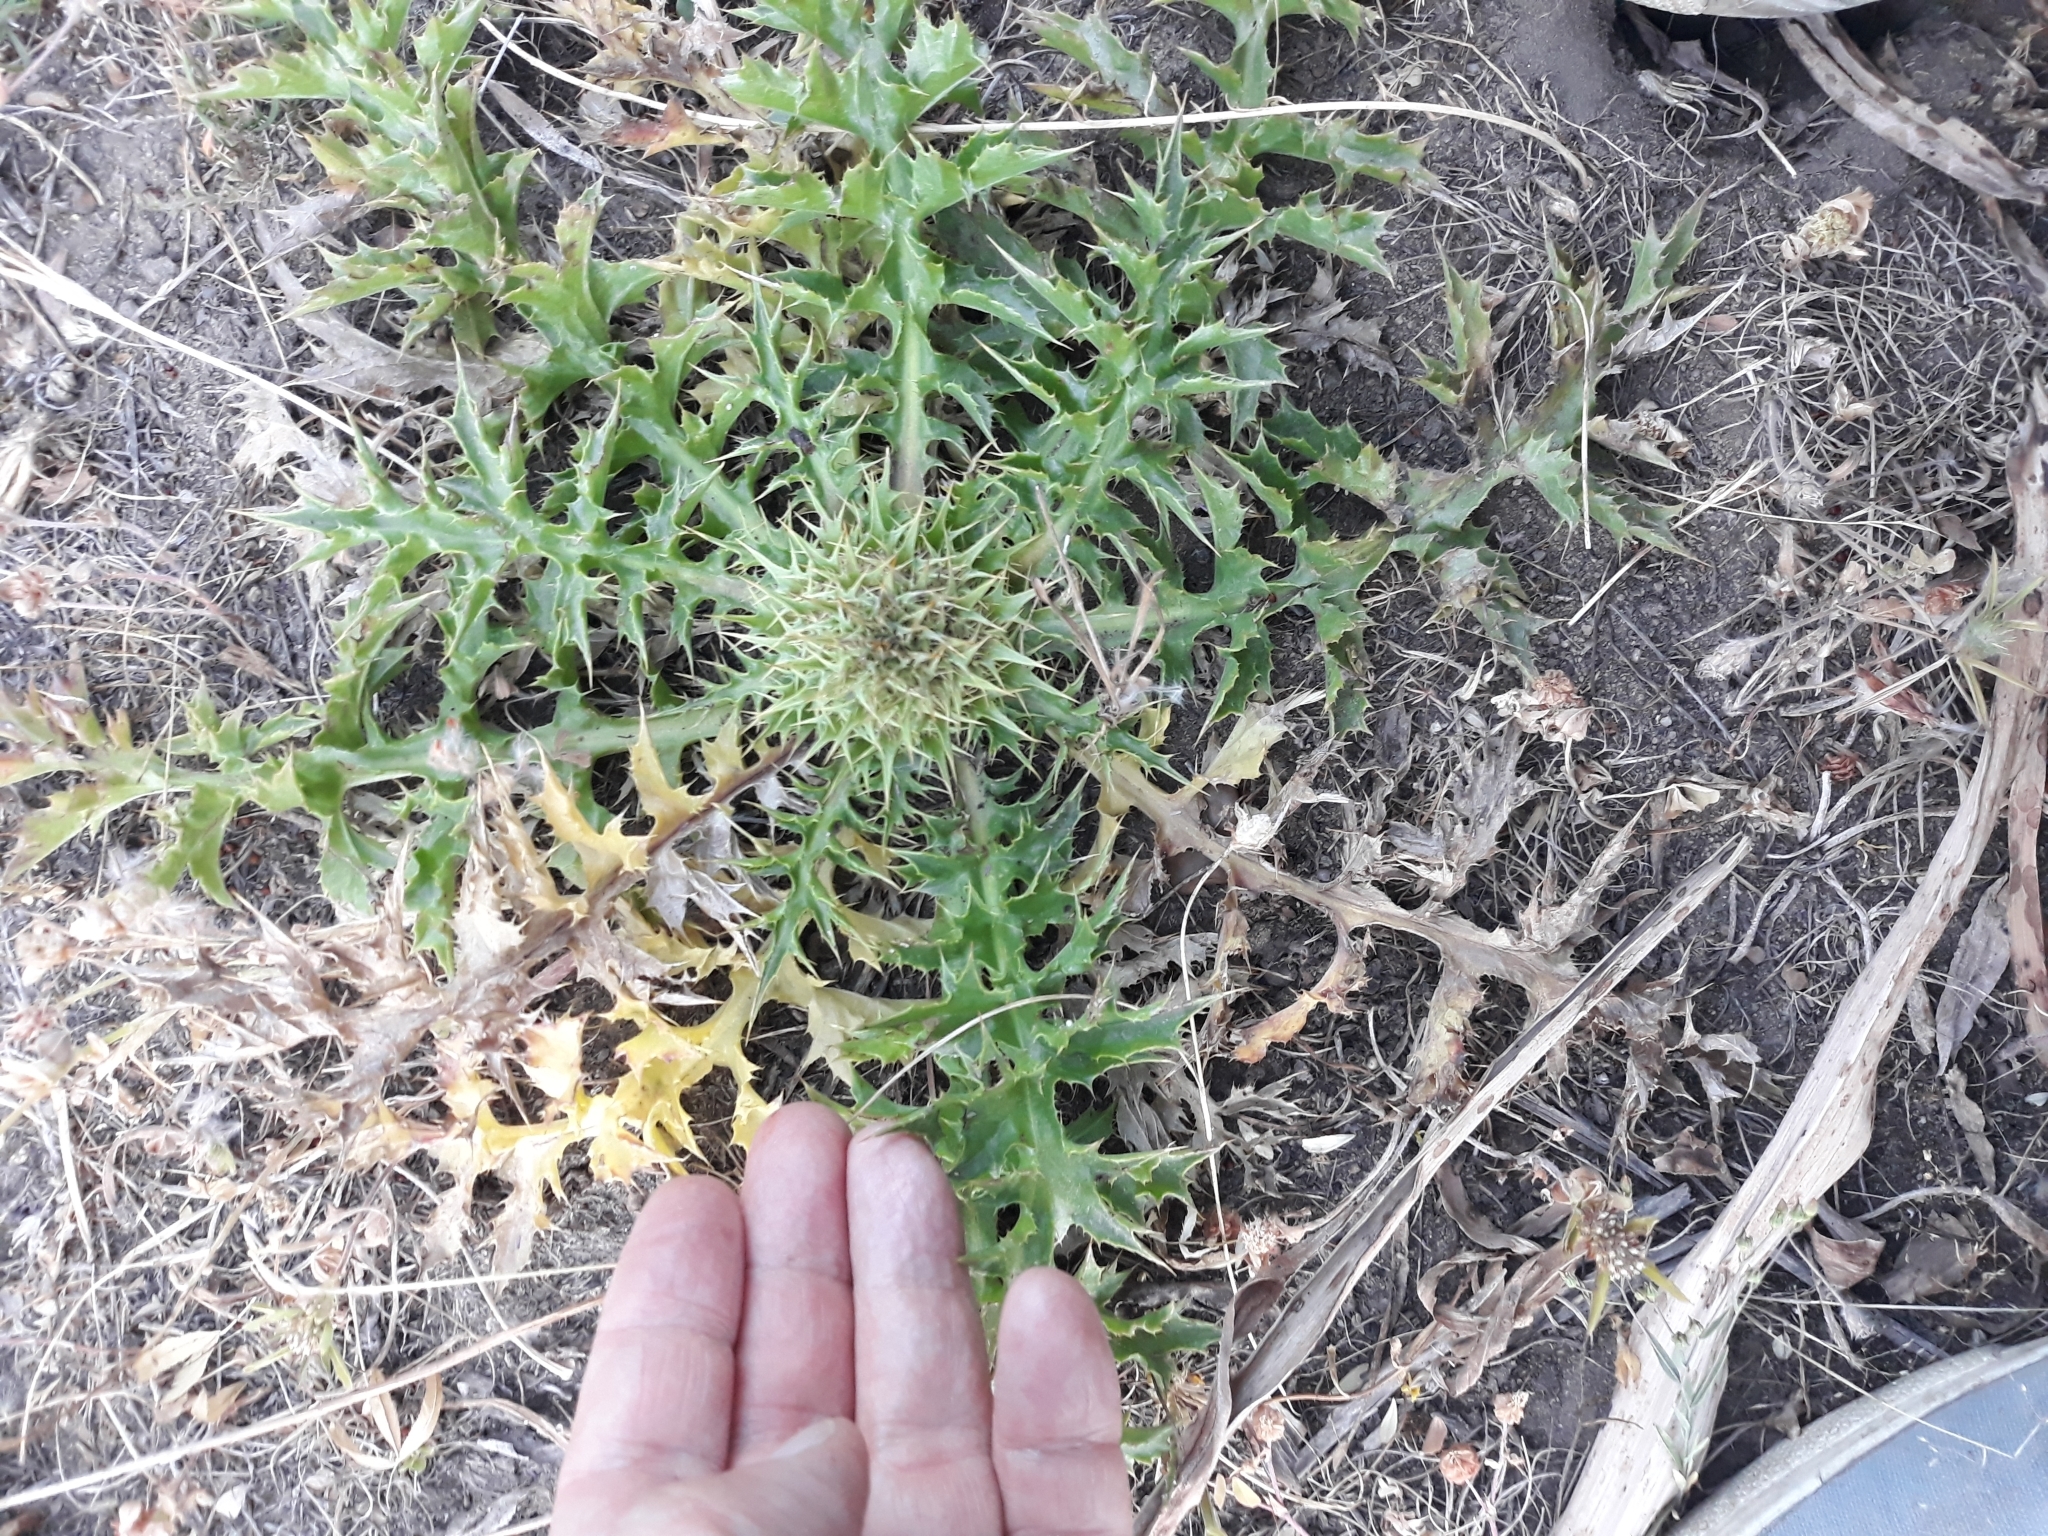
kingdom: Plantae
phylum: Tracheophyta
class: Magnoliopsida
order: Asterales
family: Asteraceae
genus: Chamaeleon
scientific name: Chamaeleon gummifer
